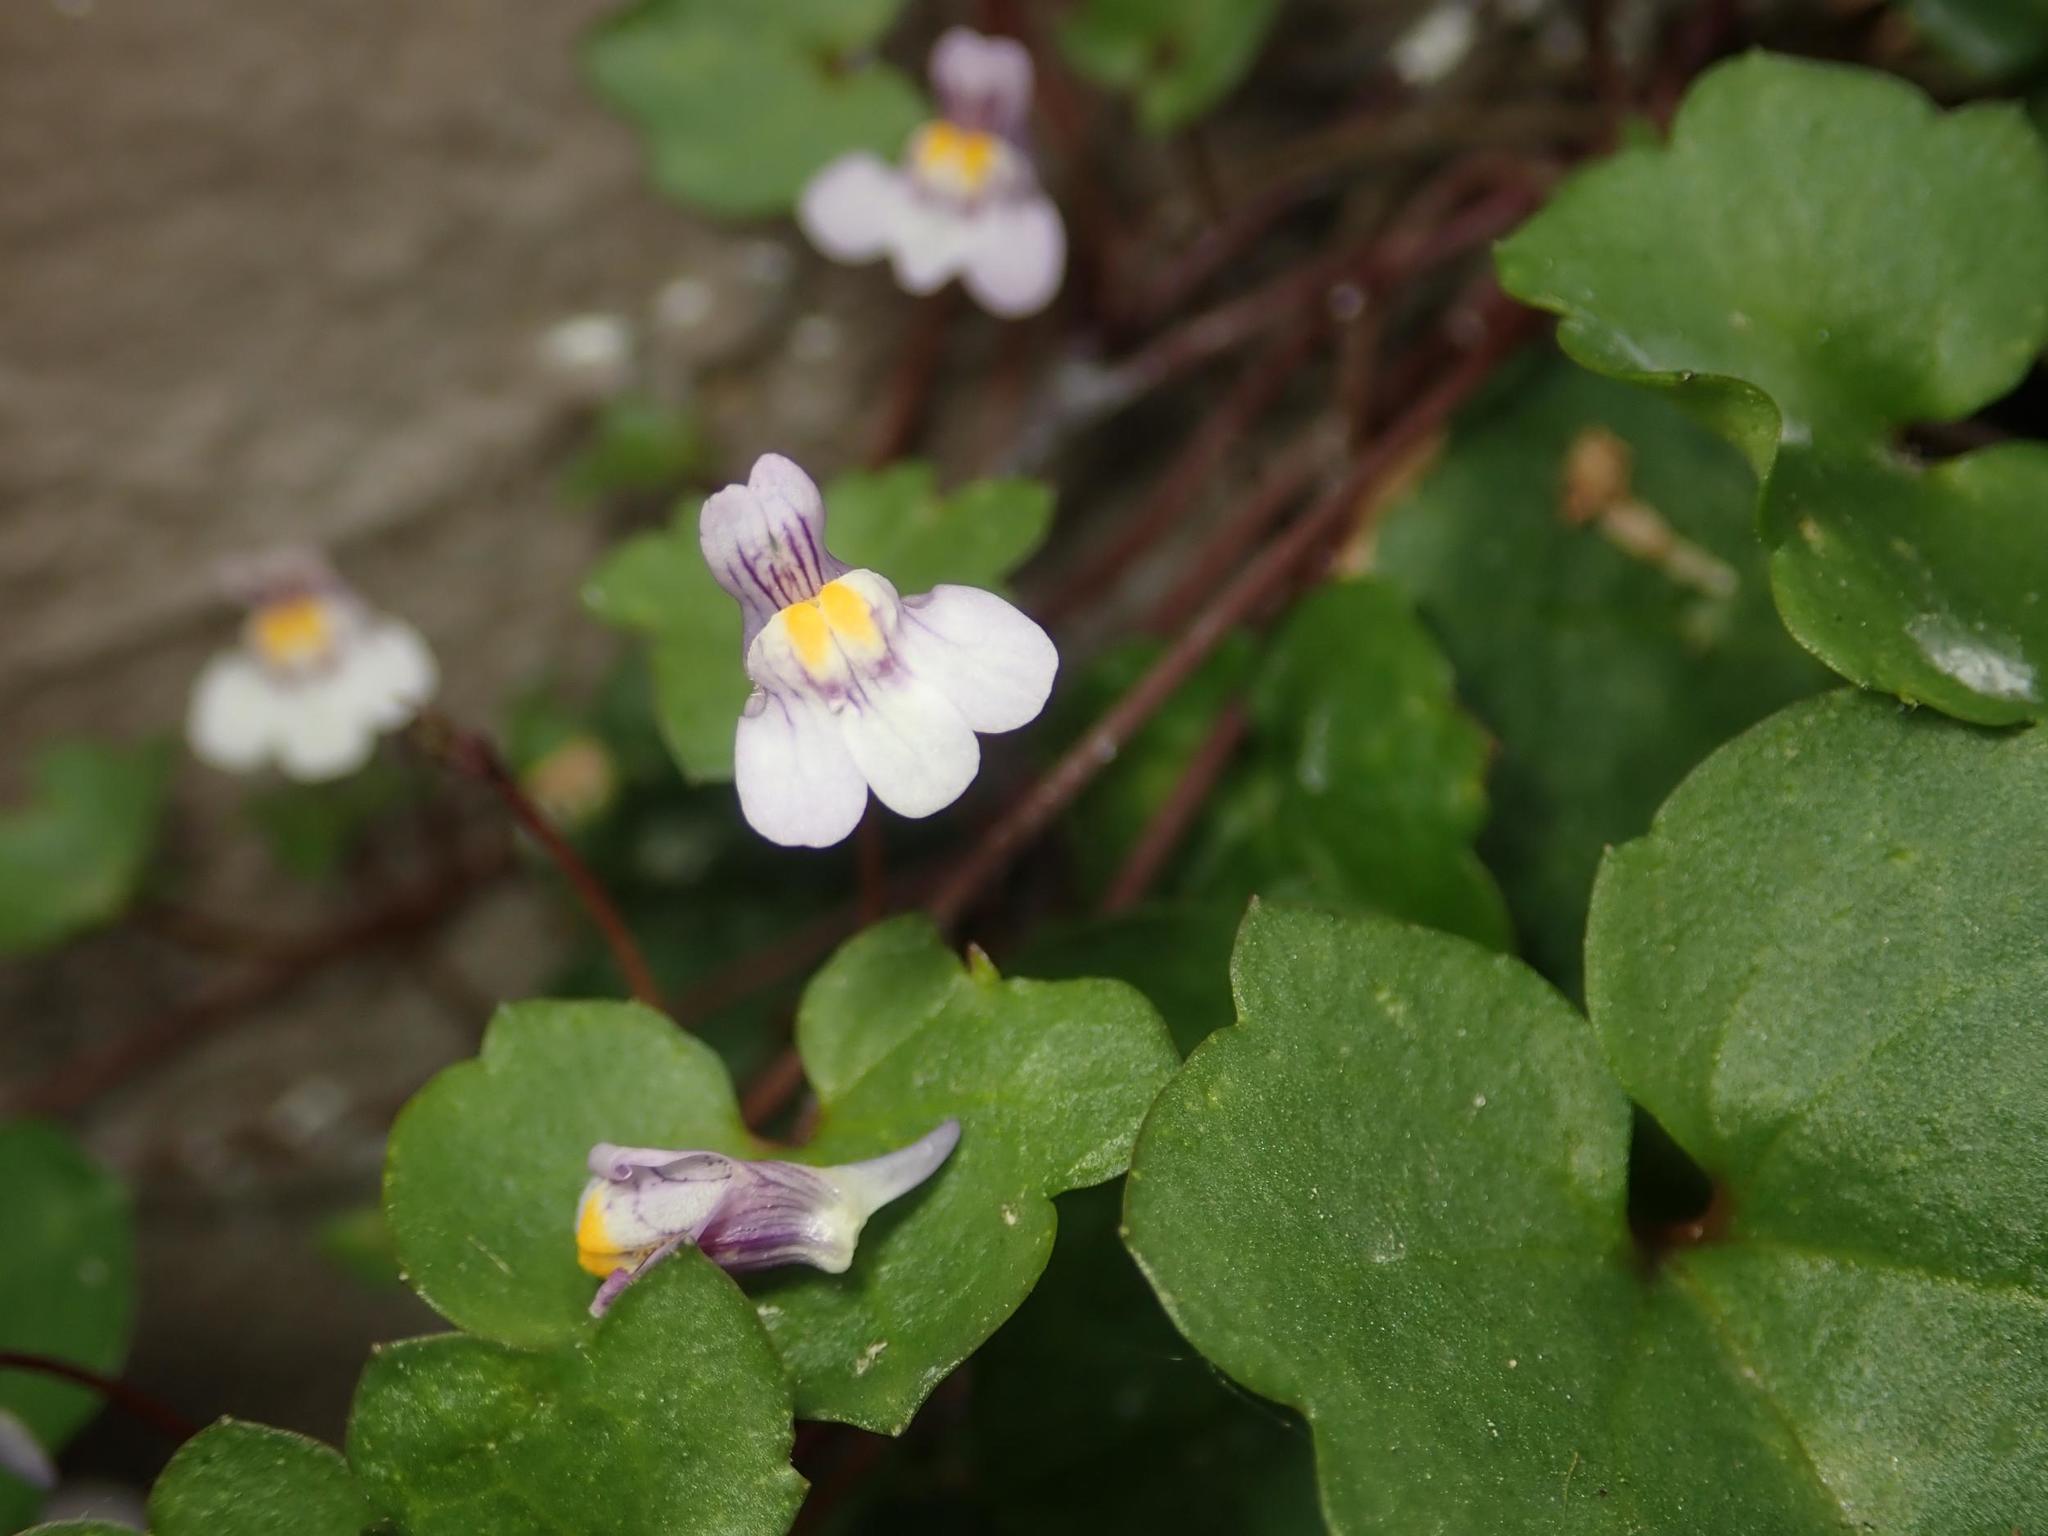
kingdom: Plantae
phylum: Tracheophyta
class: Magnoliopsida
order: Lamiales
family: Plantaginaceae
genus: Cymbalaria
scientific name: Cymbalaria muralis
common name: Ivy-leaved toadflax
